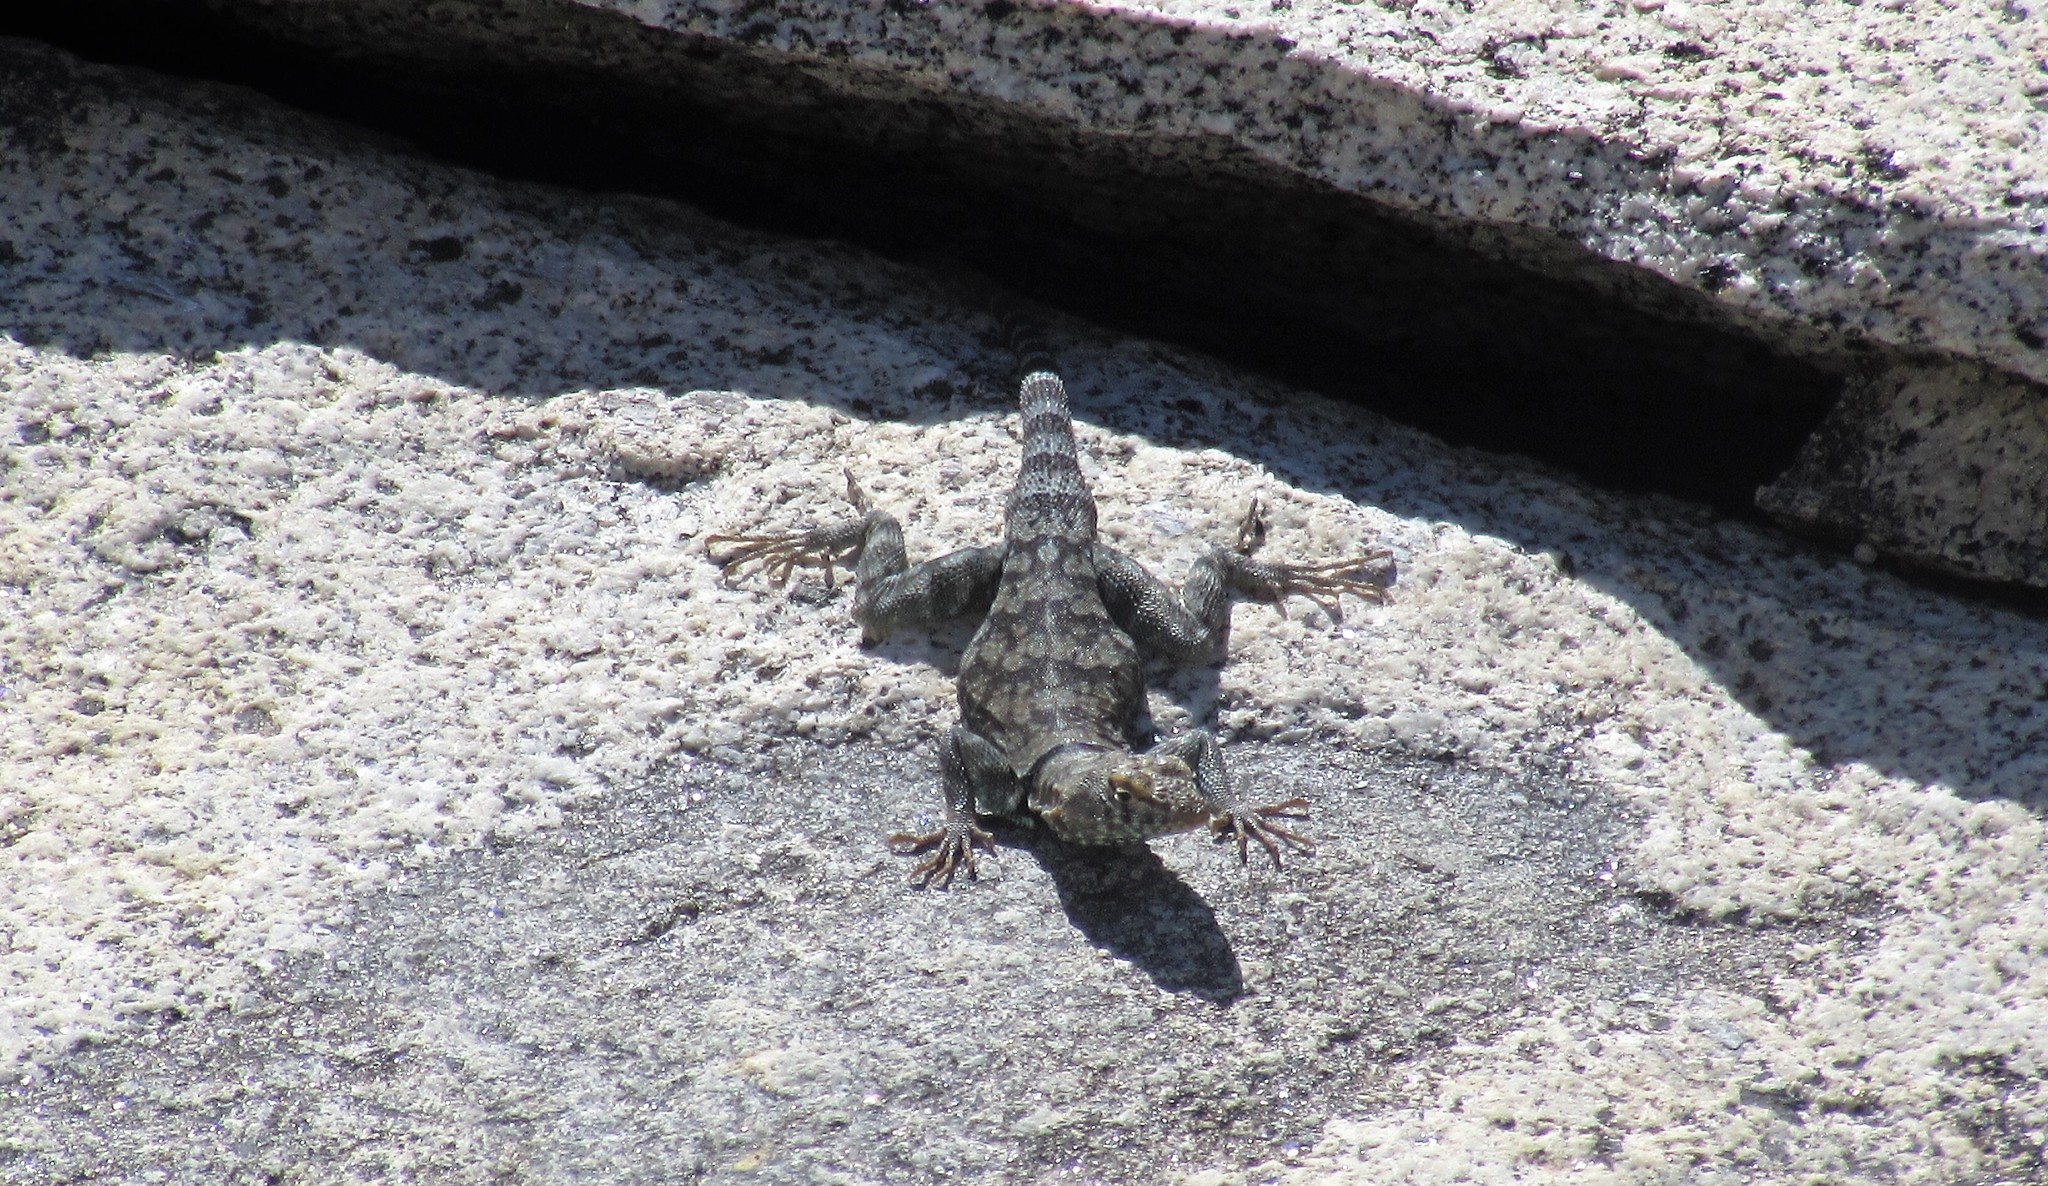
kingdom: Animalia
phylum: Chordata
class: Squamata
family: Phrynosomatidae
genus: Petrosaurus
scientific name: Petrosaurus mearnsi
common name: Banded rock lizard
